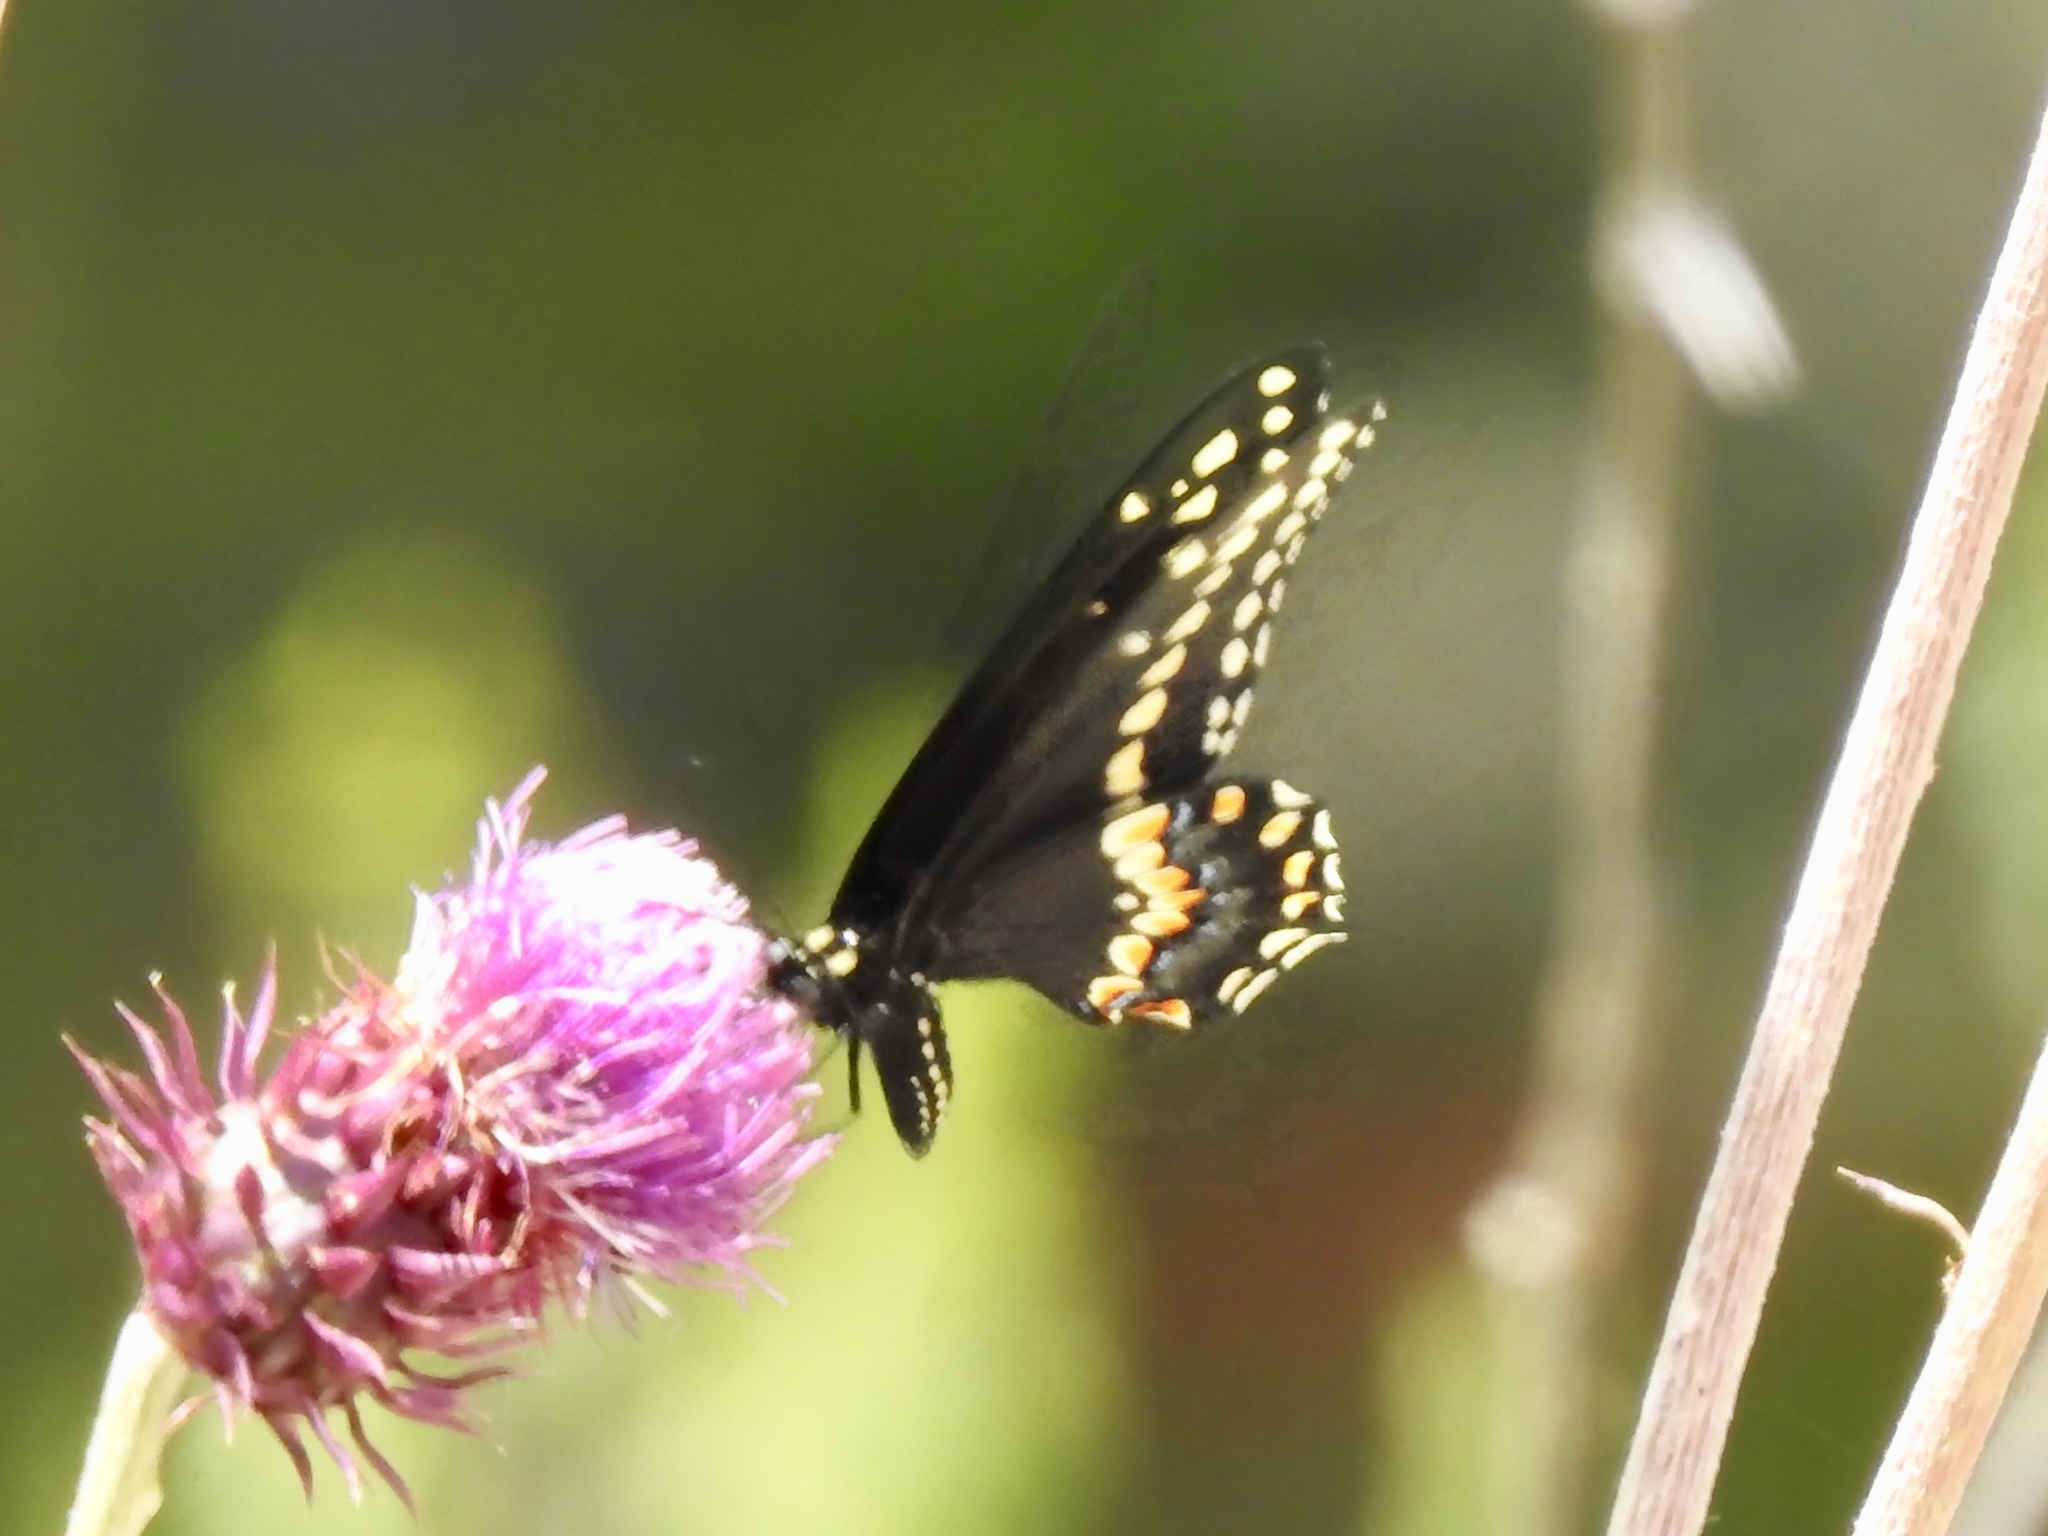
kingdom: Animalia
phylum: Arthropoda
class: Insecta
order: Lepidoptera
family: Papilionidae
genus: Papilio
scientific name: Papilio polyxenes
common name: Black swallowtail
